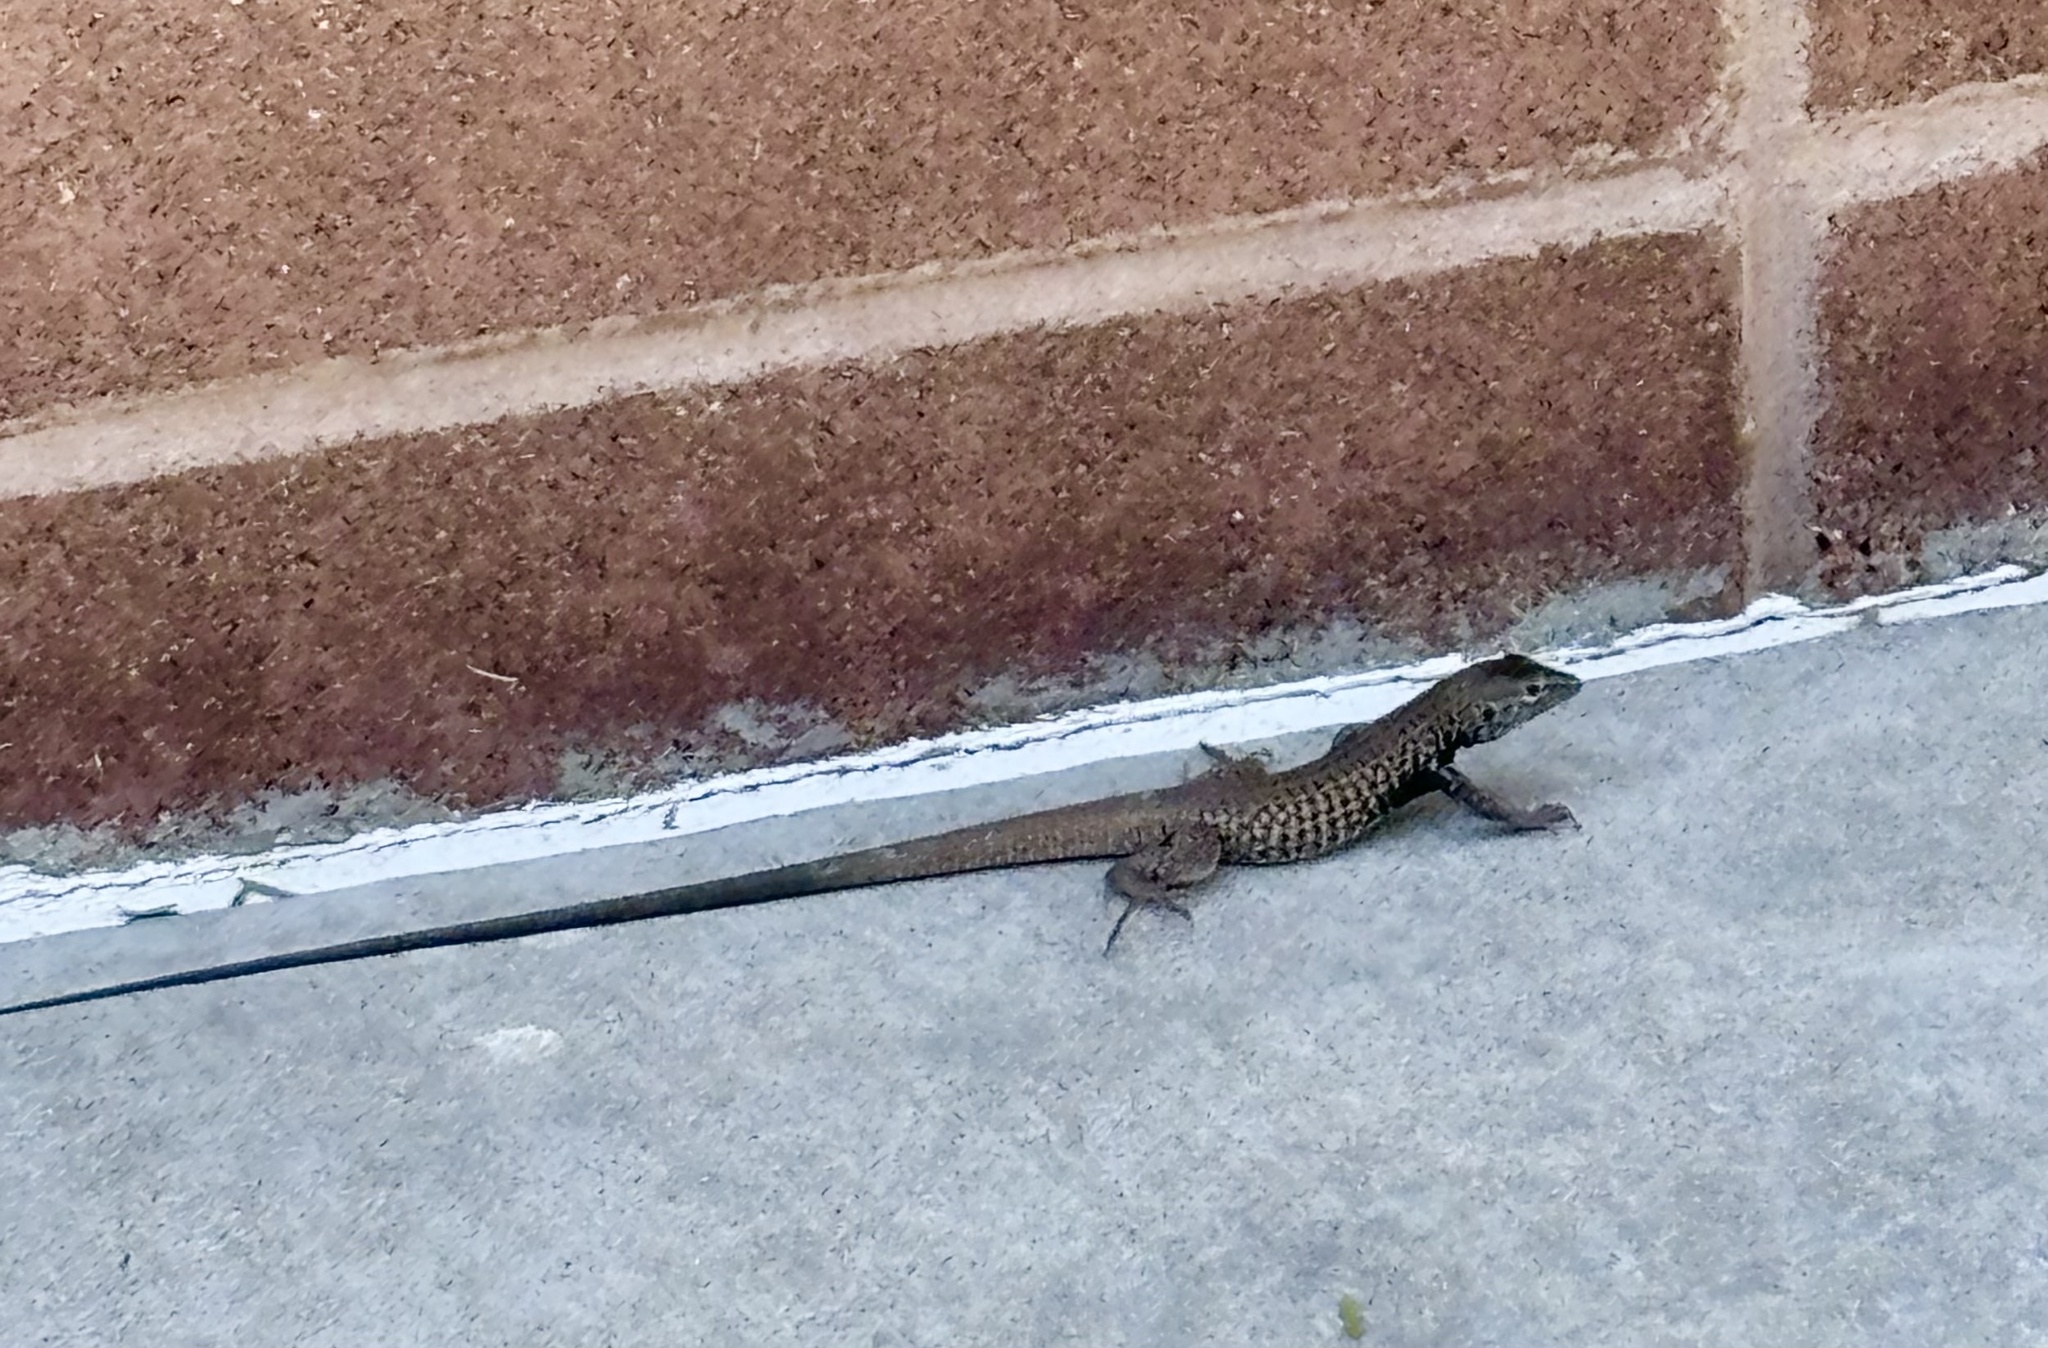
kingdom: Animalia
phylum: Chordata
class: Squamata
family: Teiidae
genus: Aspidoscelis
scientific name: Aspidoscelis tigris
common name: Tiger whiptail
